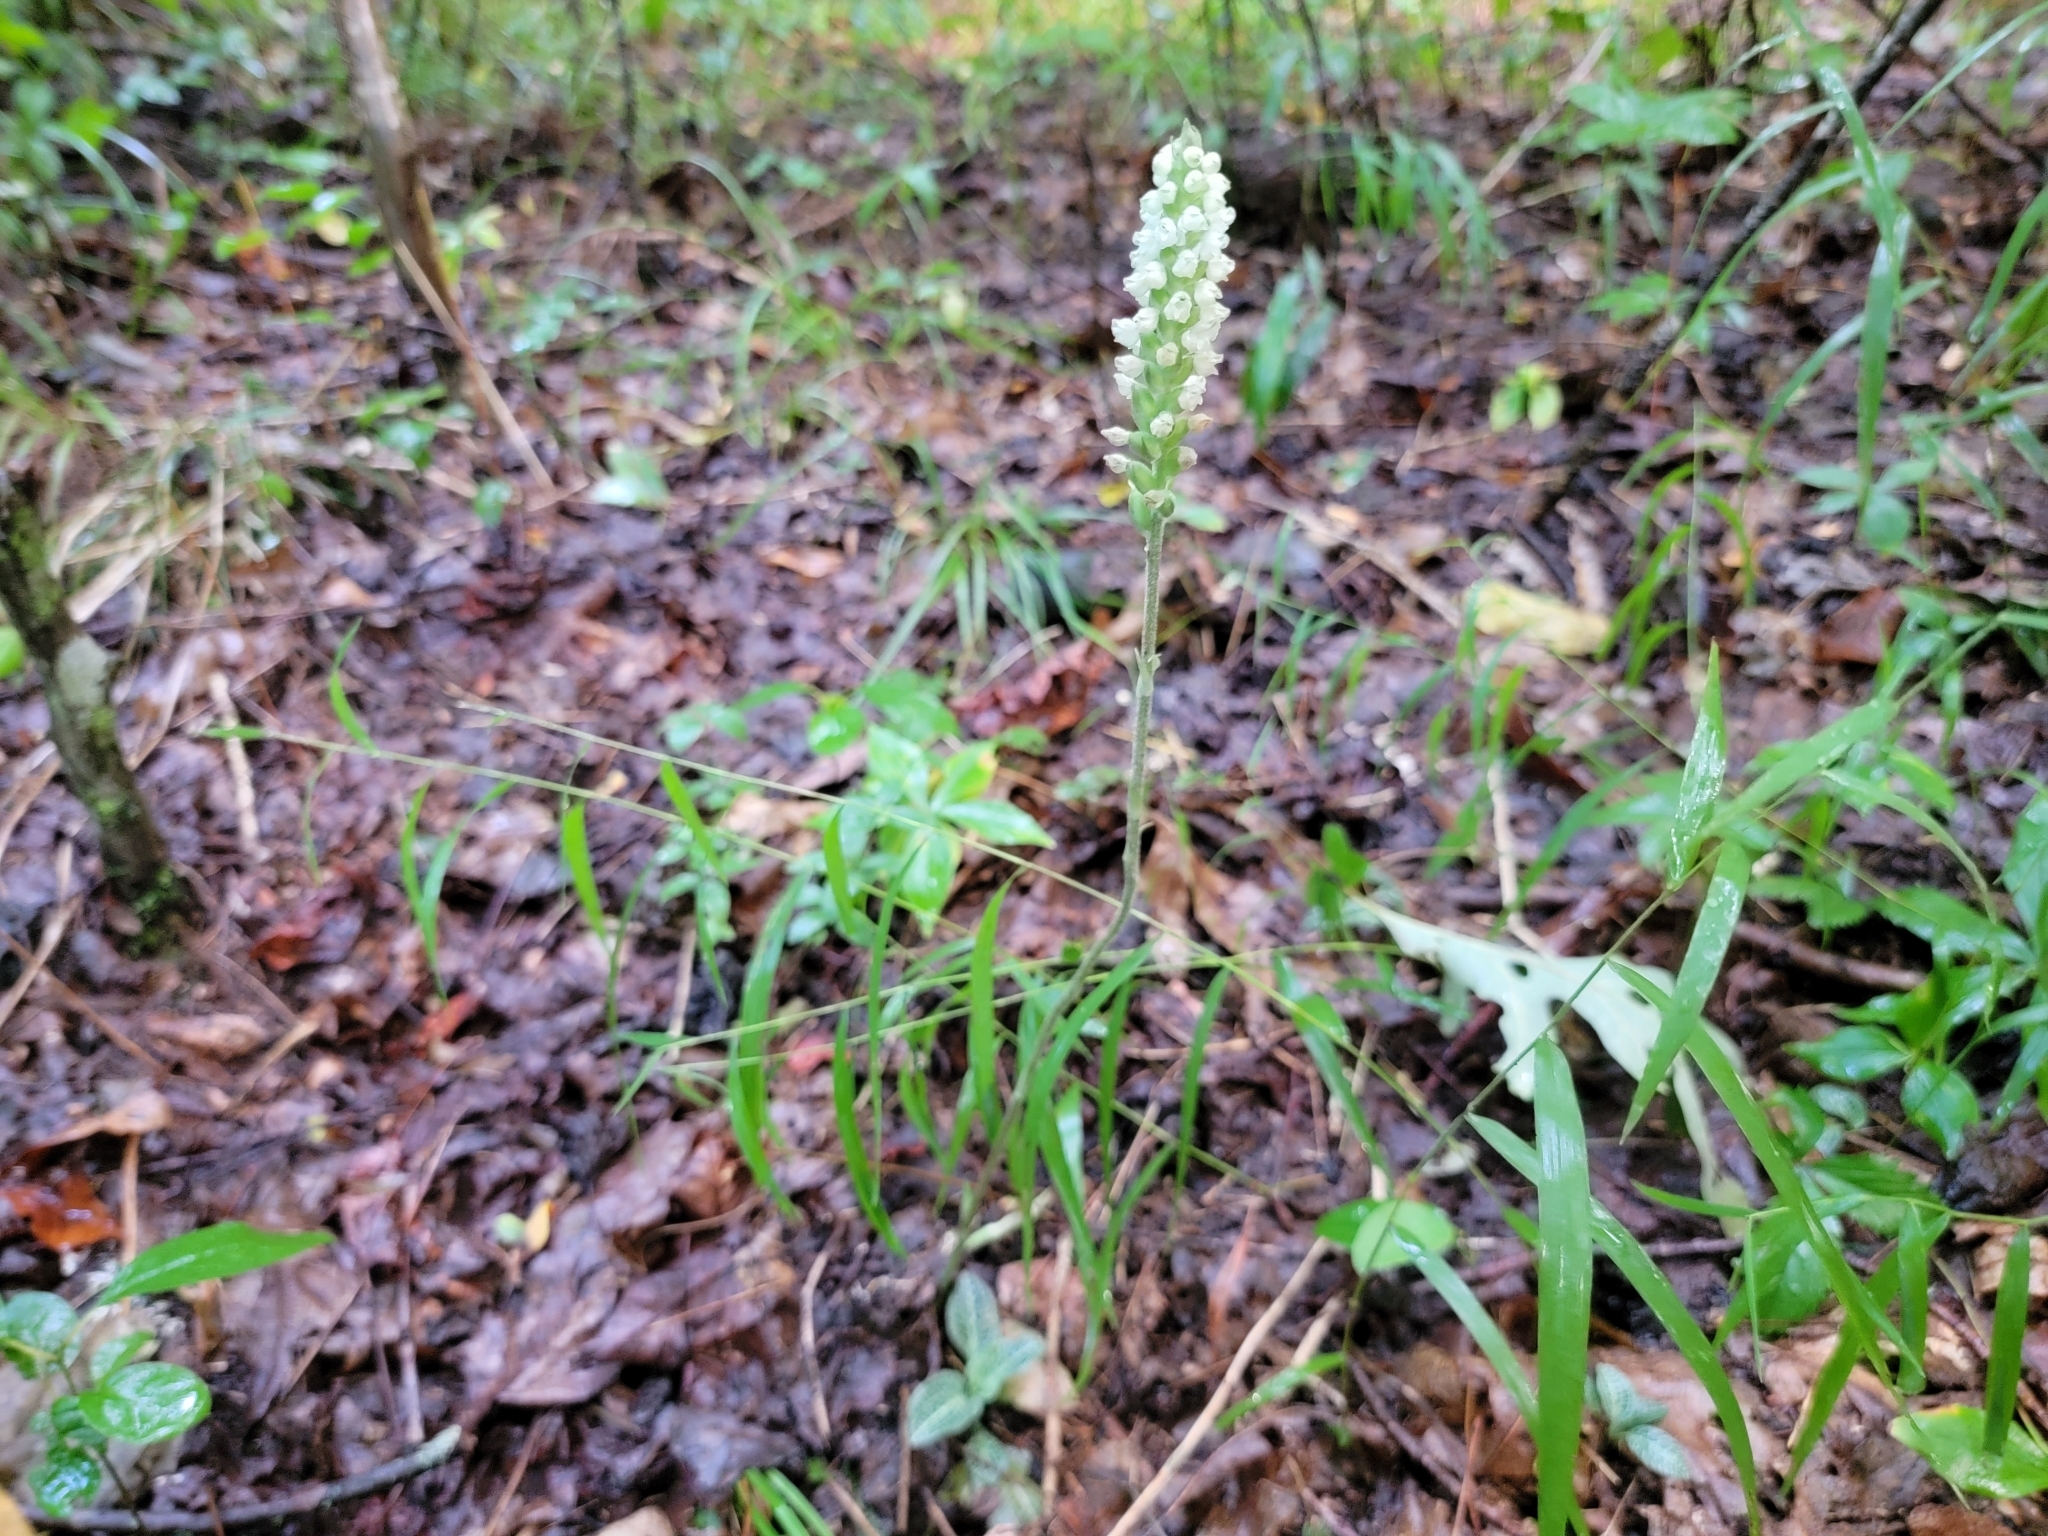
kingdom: Plantae
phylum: Tracheophyta
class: Liliopsida
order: Asparagales
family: Orchidaceae
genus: Goodyera
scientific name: Goodyera pubescens
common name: Downy rattlesnake-plantain
